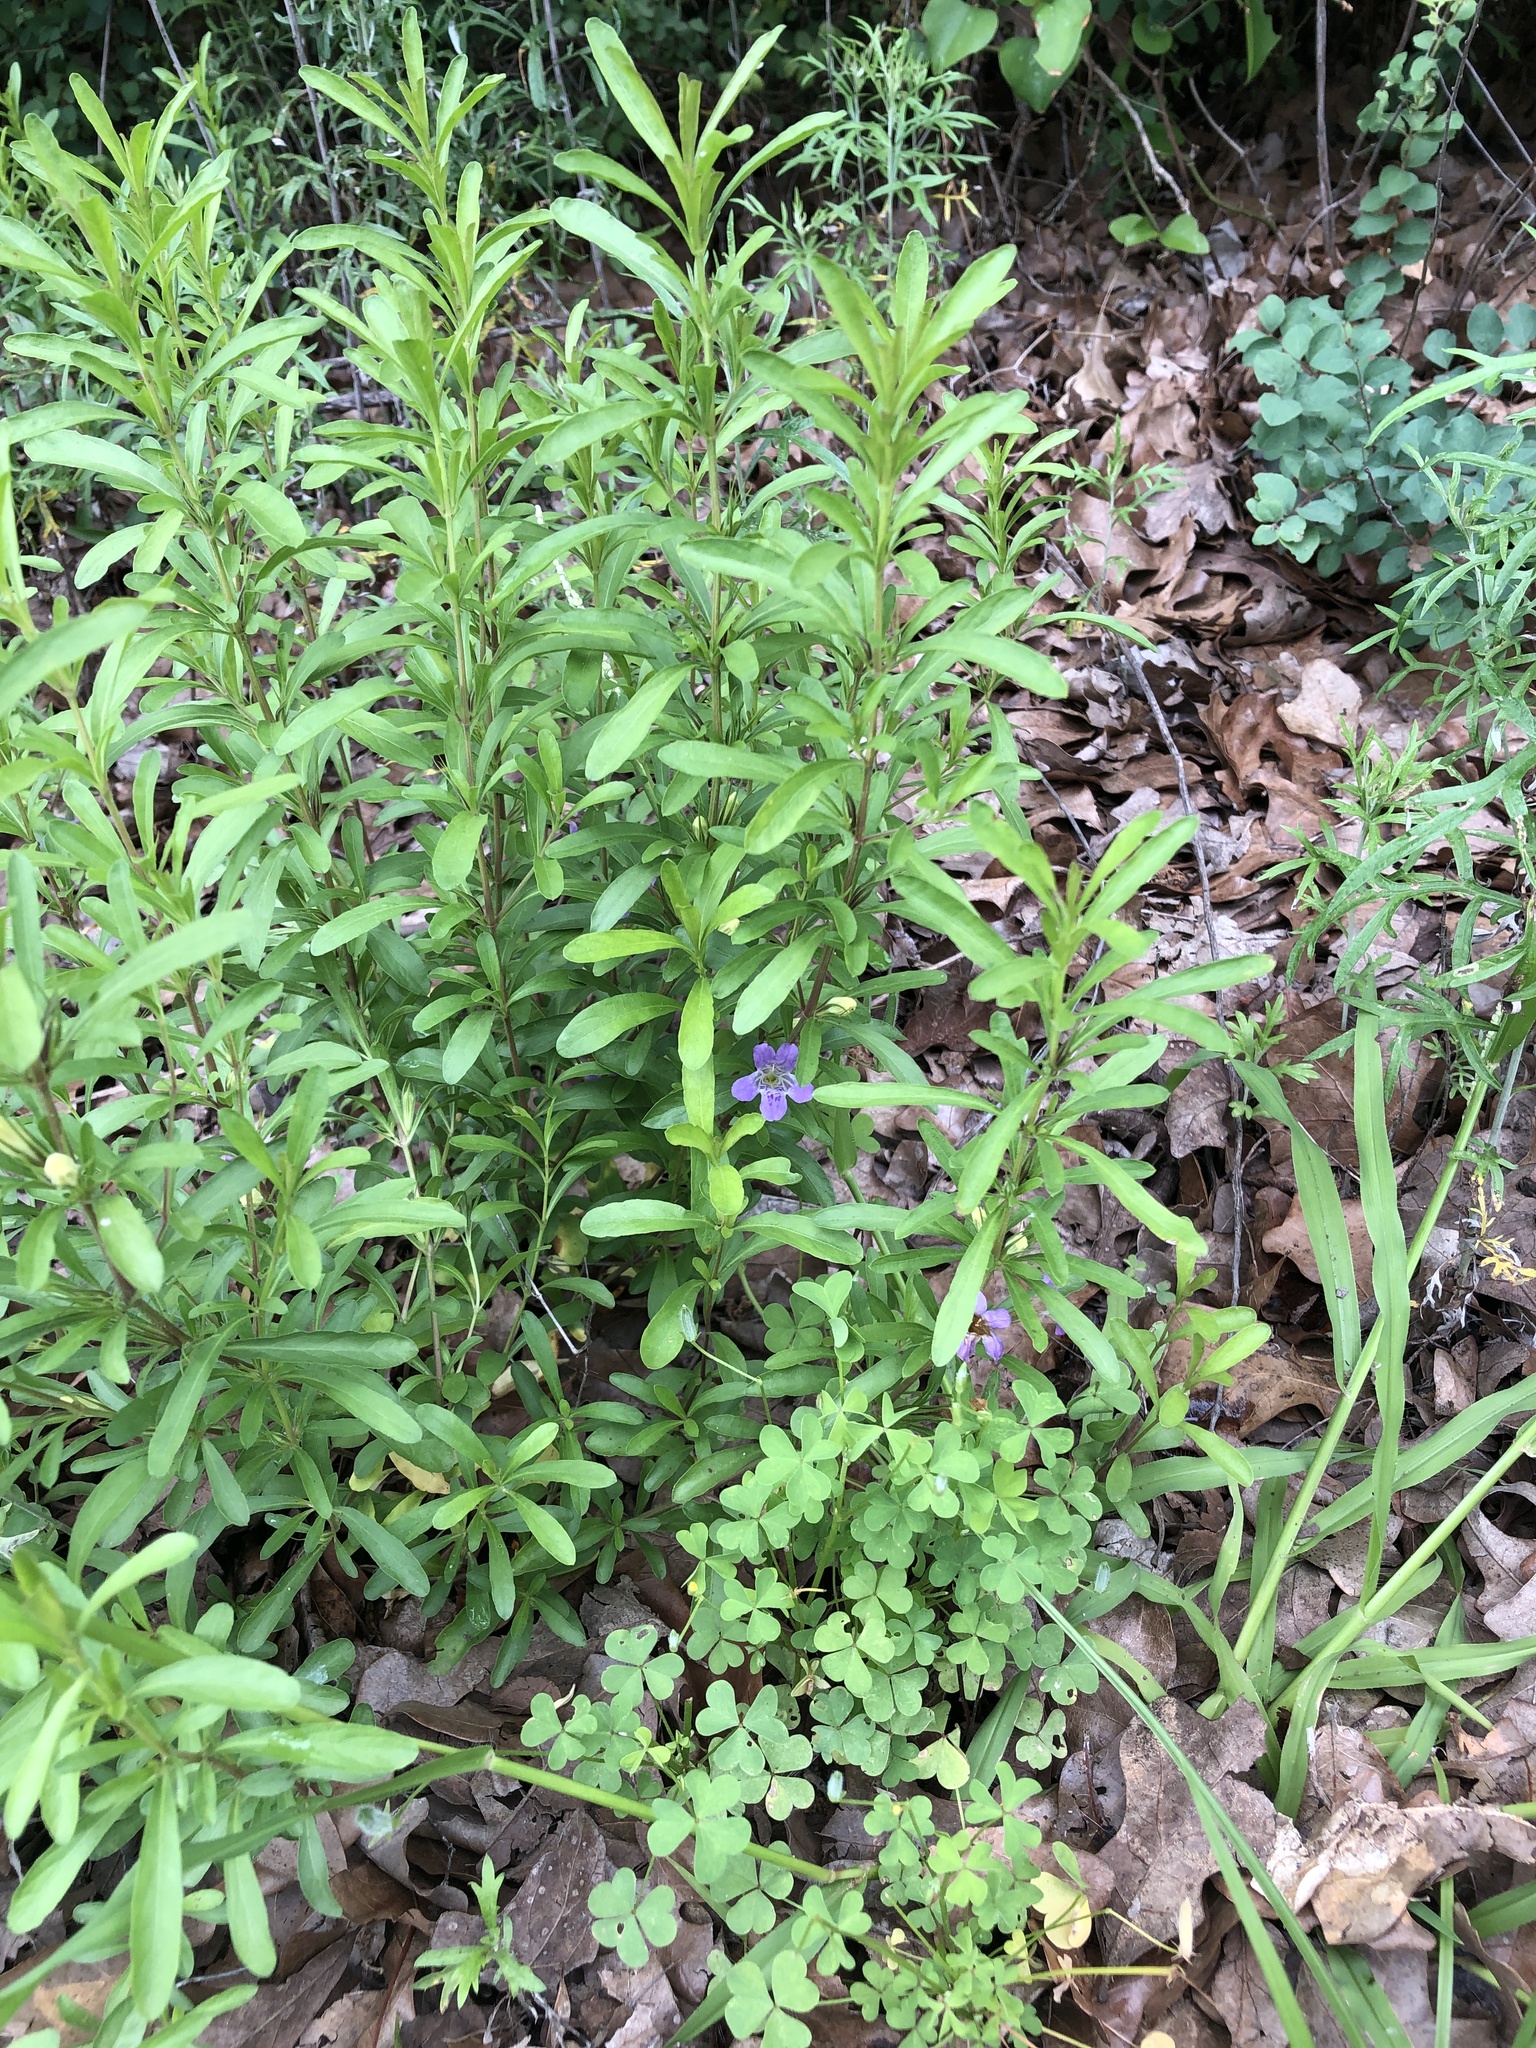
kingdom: Plantae
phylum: Tracheophyta
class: Magnoliopsida
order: Lamiales
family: Acanthaceae
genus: Dyschoriste
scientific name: Dyschoriste linearis
